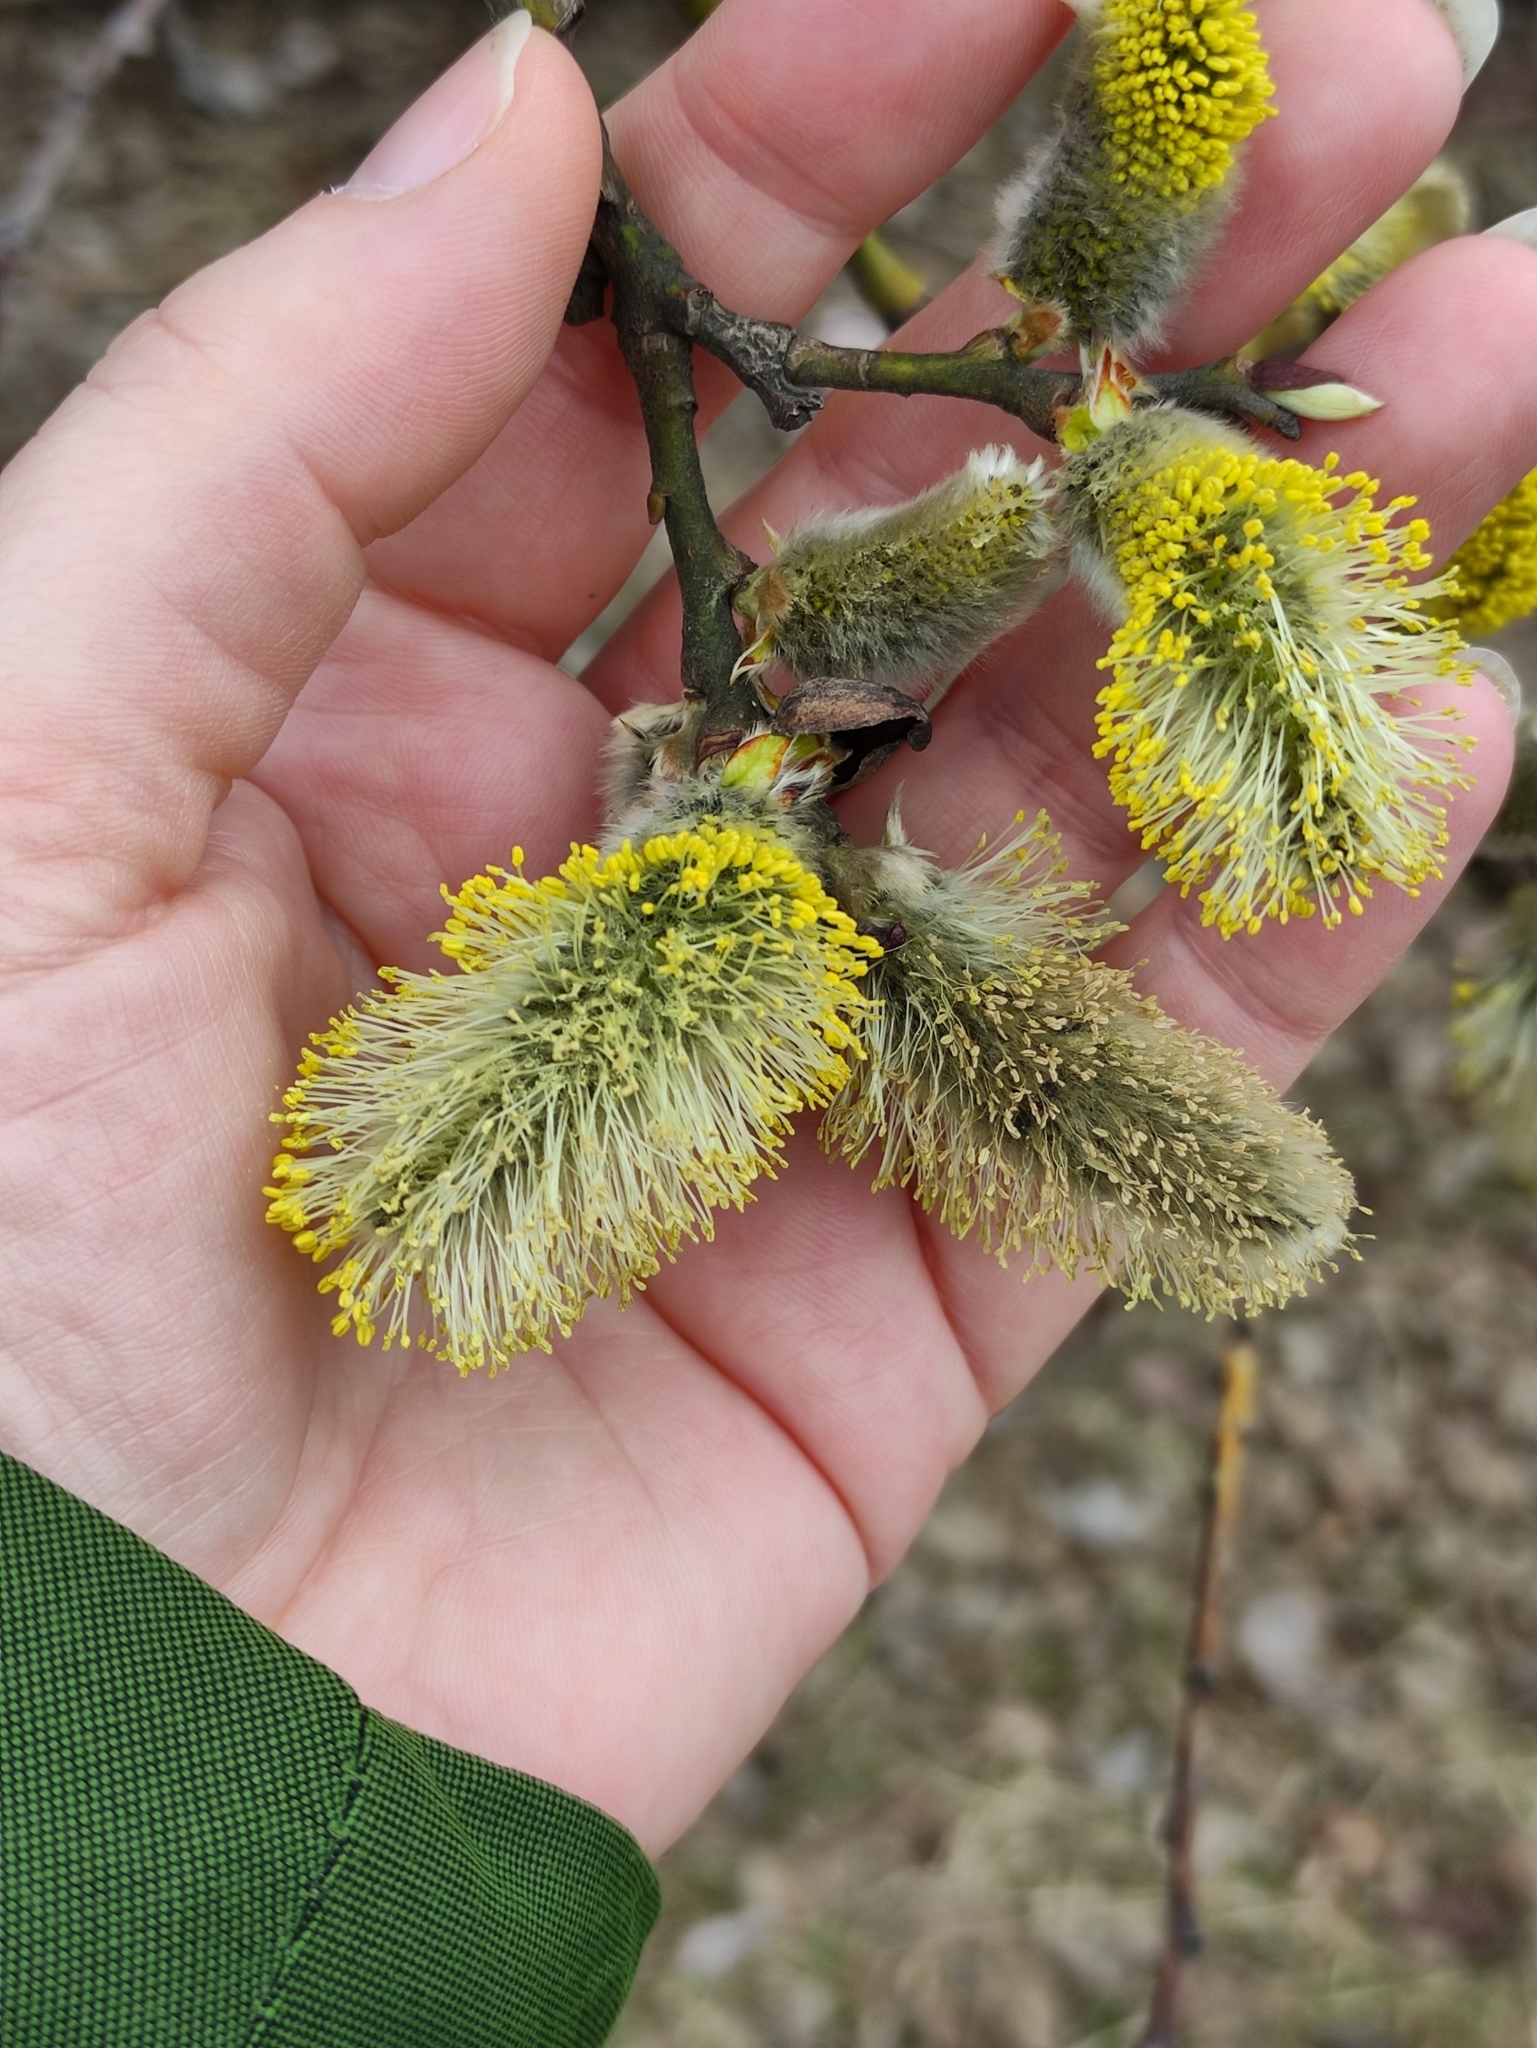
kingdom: Plantae
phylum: Tracheophyta
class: Magnoliopsida
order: Malpighiales
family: Salicaceae
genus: Salix
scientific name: Salix caprea
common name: Goat willow
